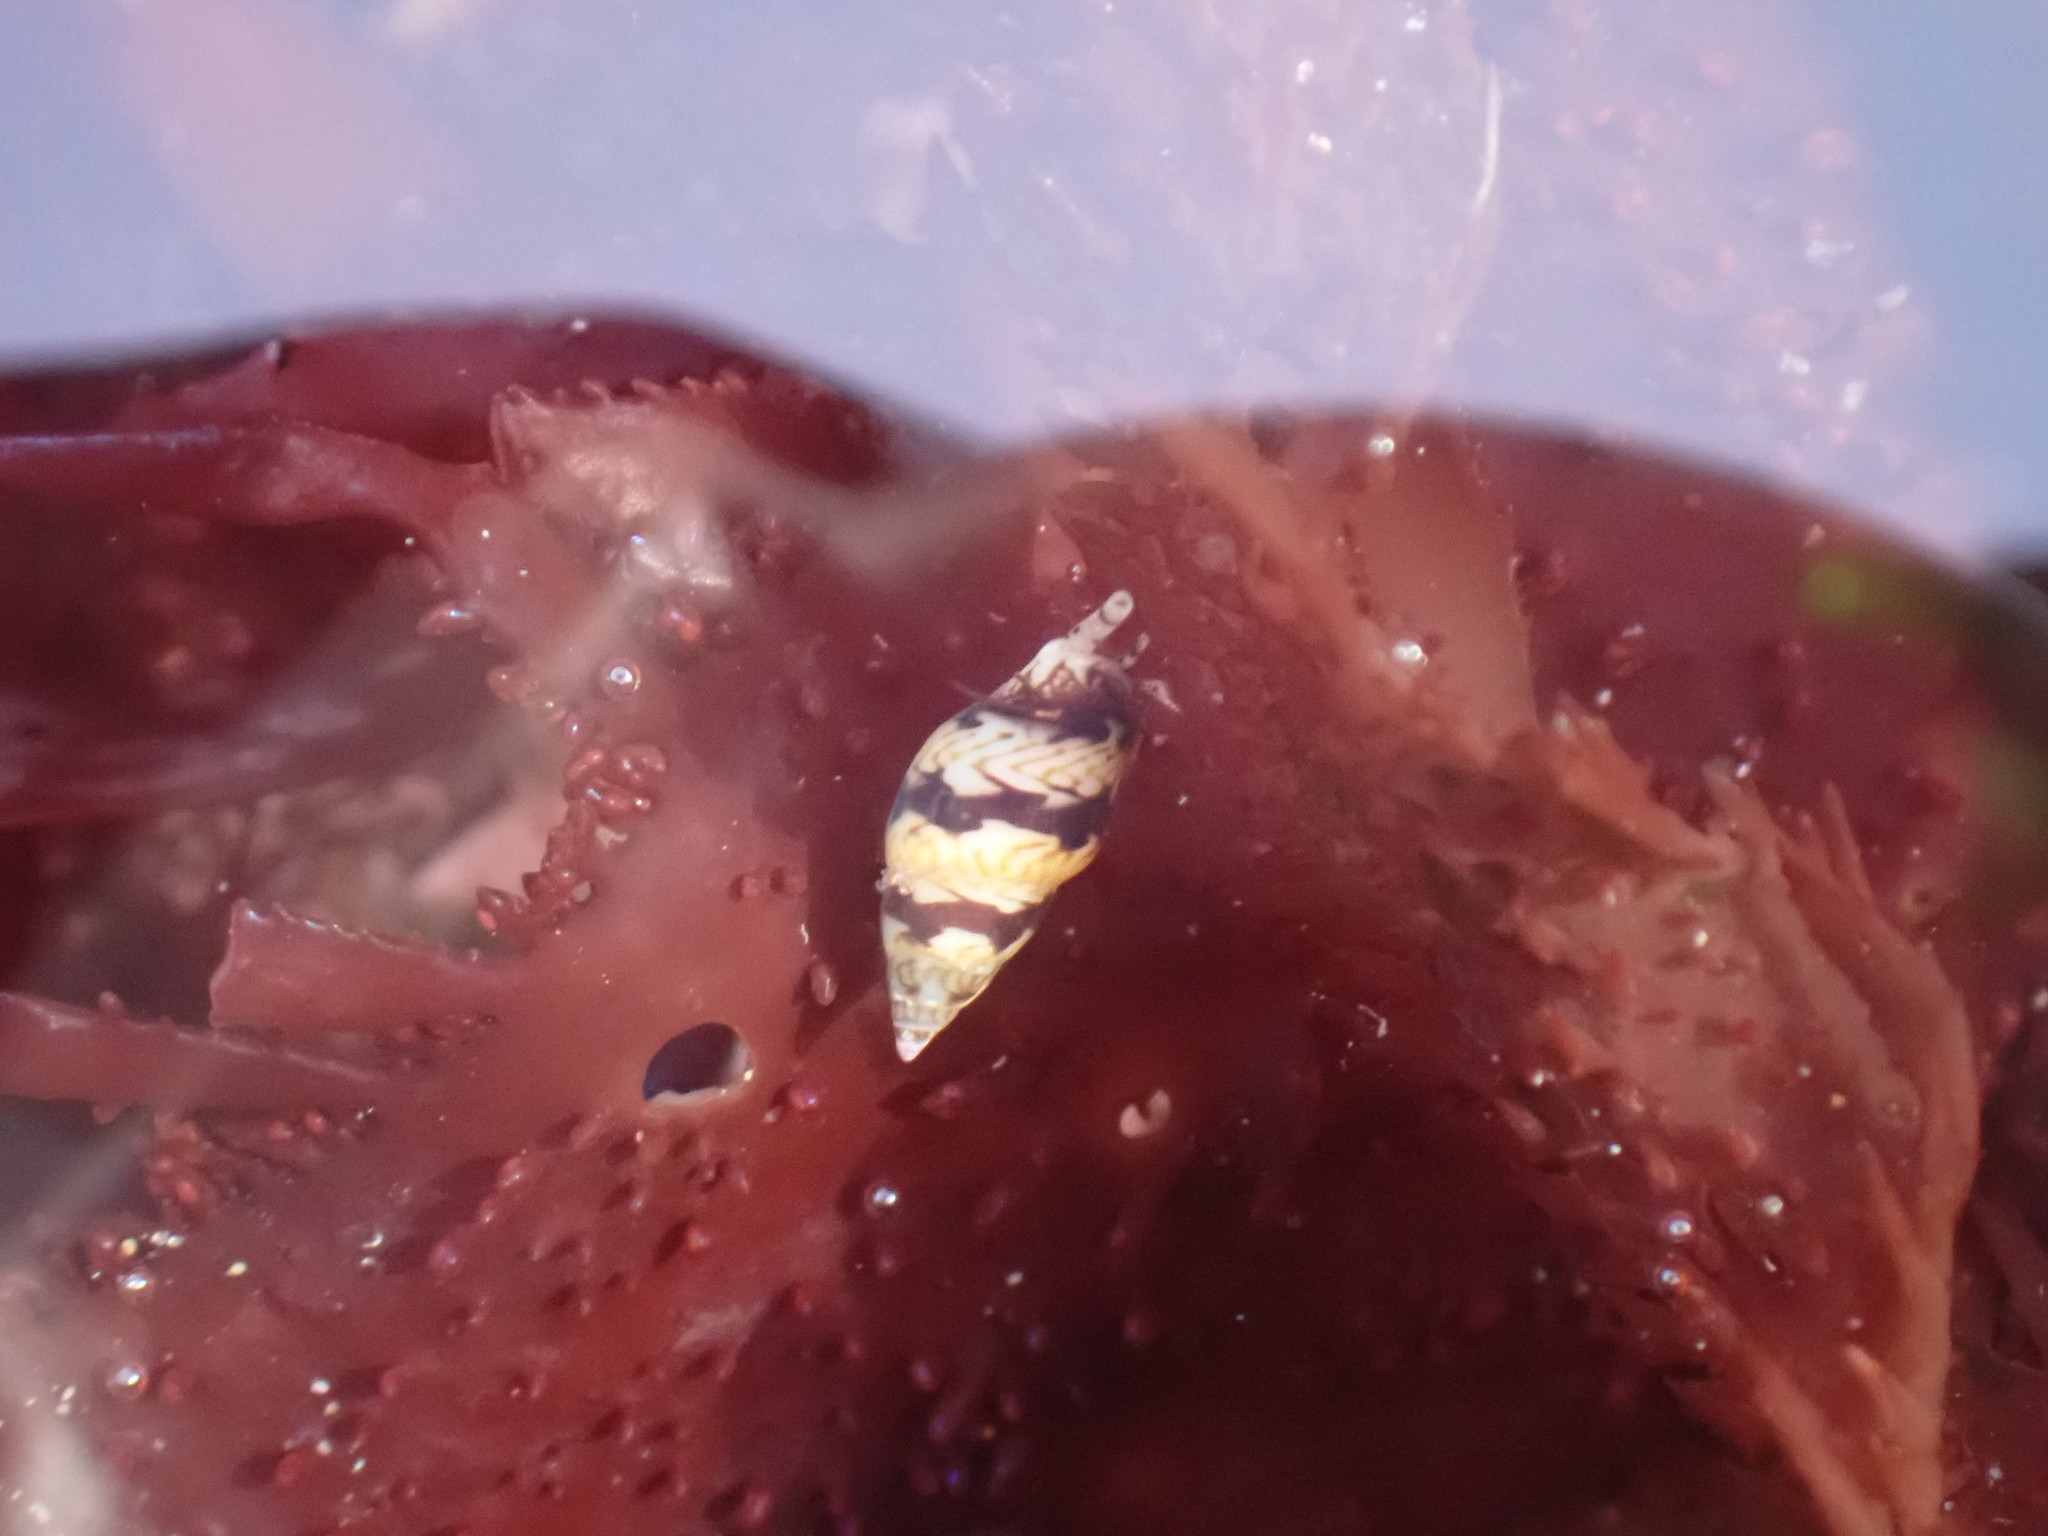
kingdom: Animalia
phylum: Mollusca
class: Gastropoda
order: Neogastropoda
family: Columbellidae
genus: Alia
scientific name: Alia carinata
